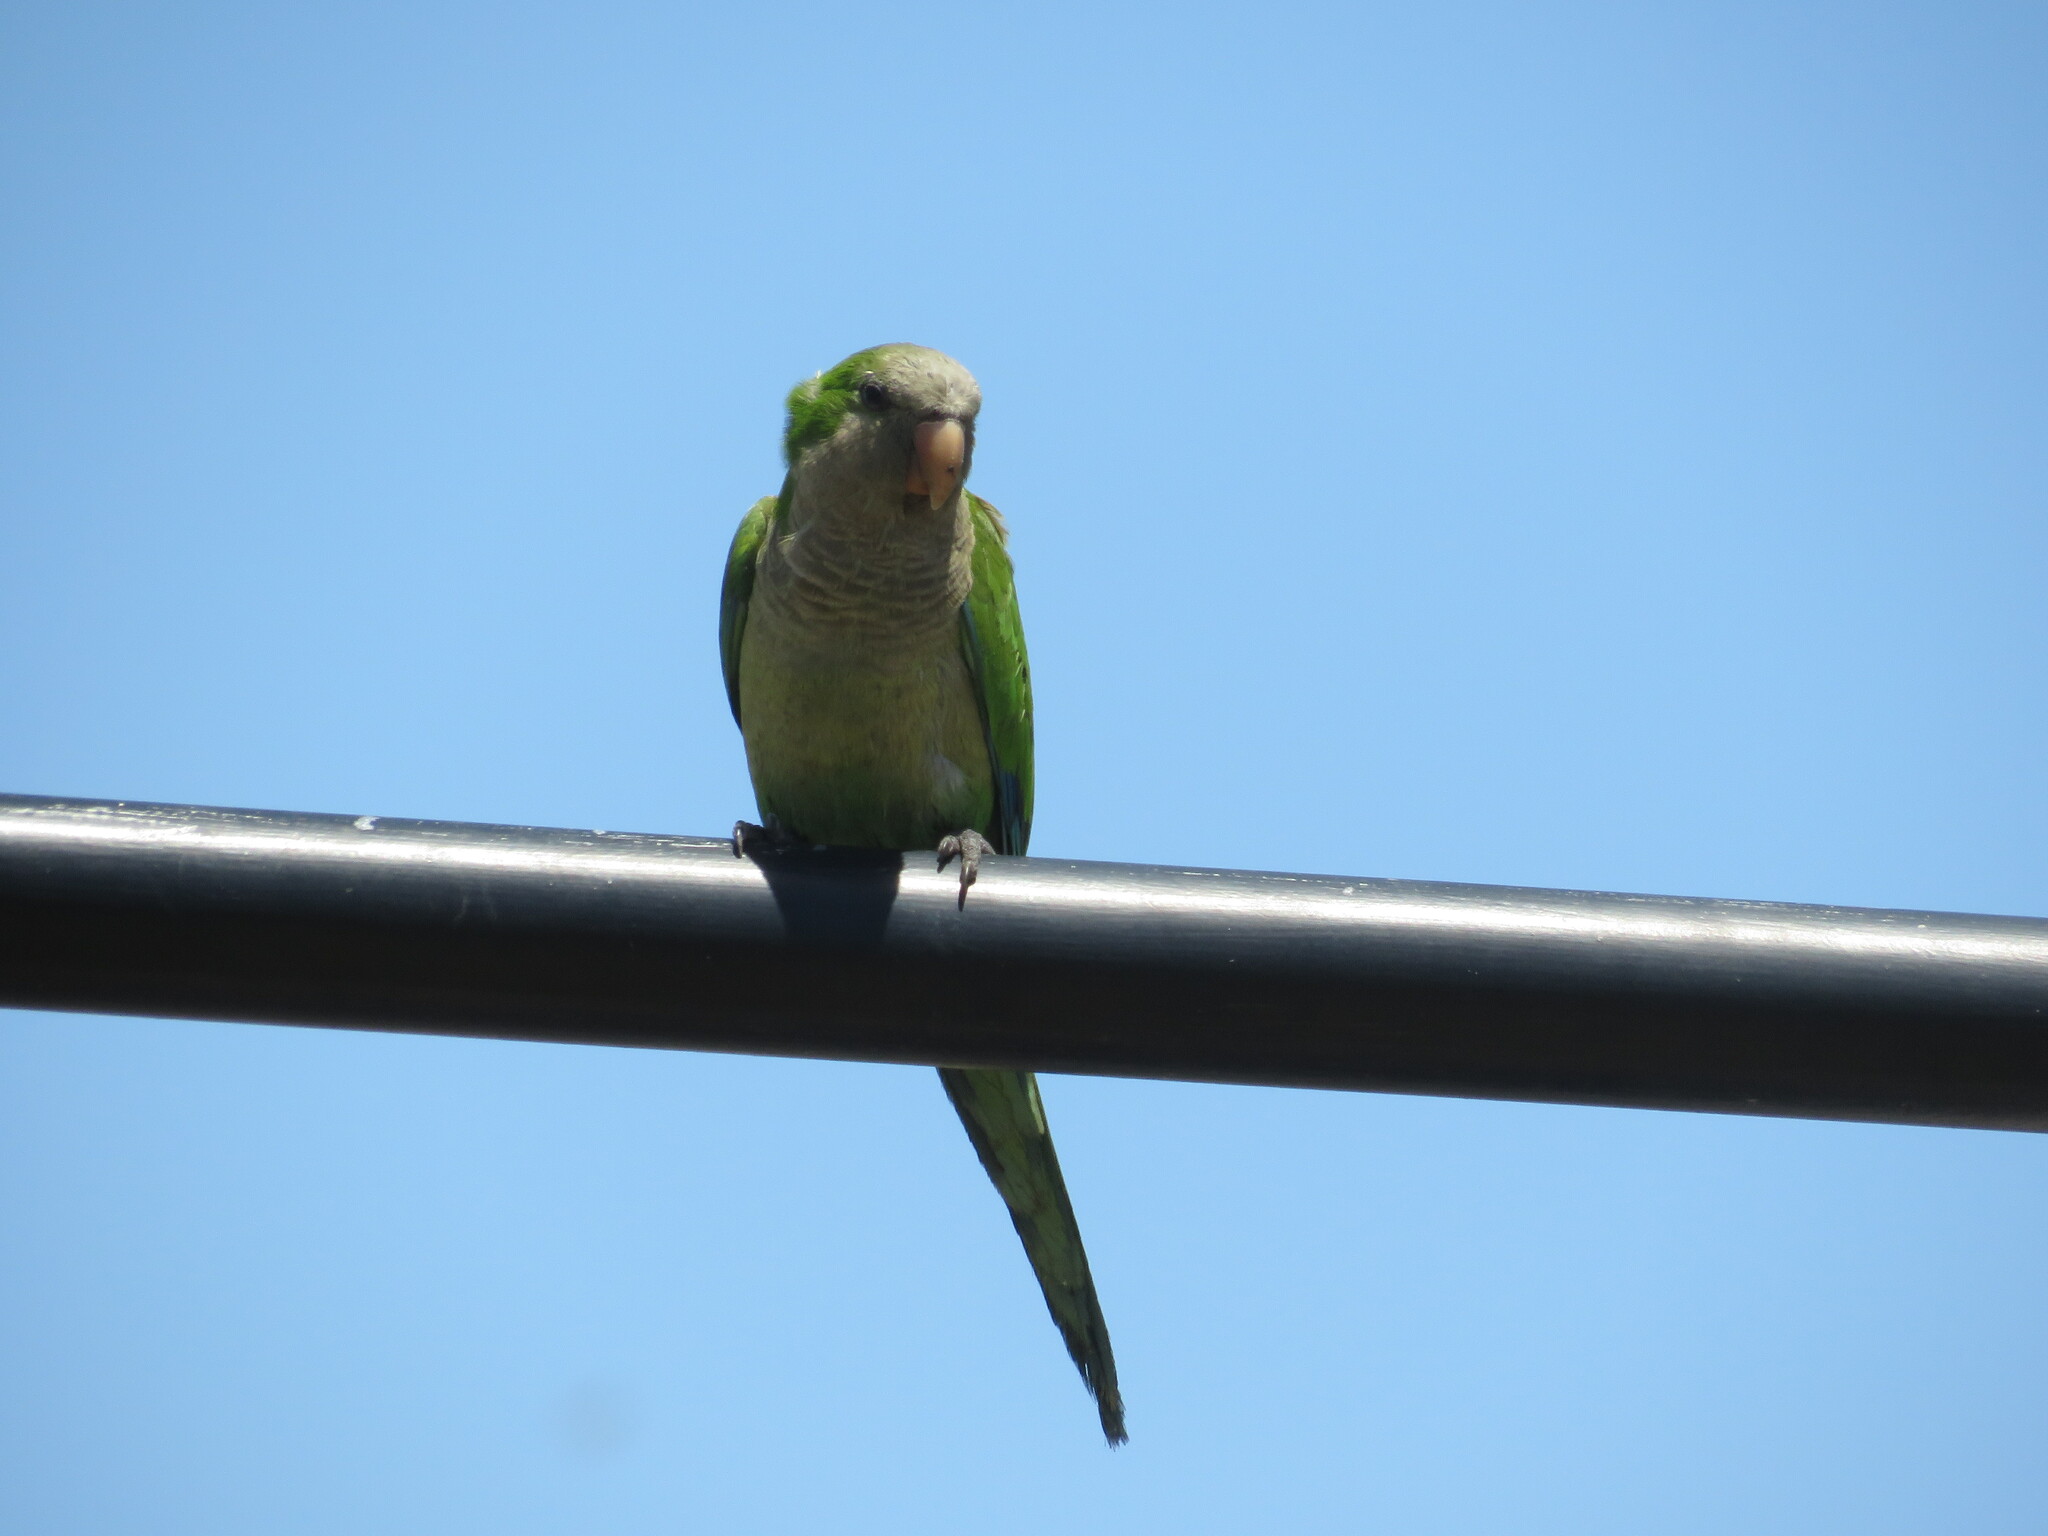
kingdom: Animalia
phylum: Chordata
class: Aves
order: Psittaciformes
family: Psittacidae
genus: Myiopsitta
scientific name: Myiopsitta monachus
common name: Monk parakeet
